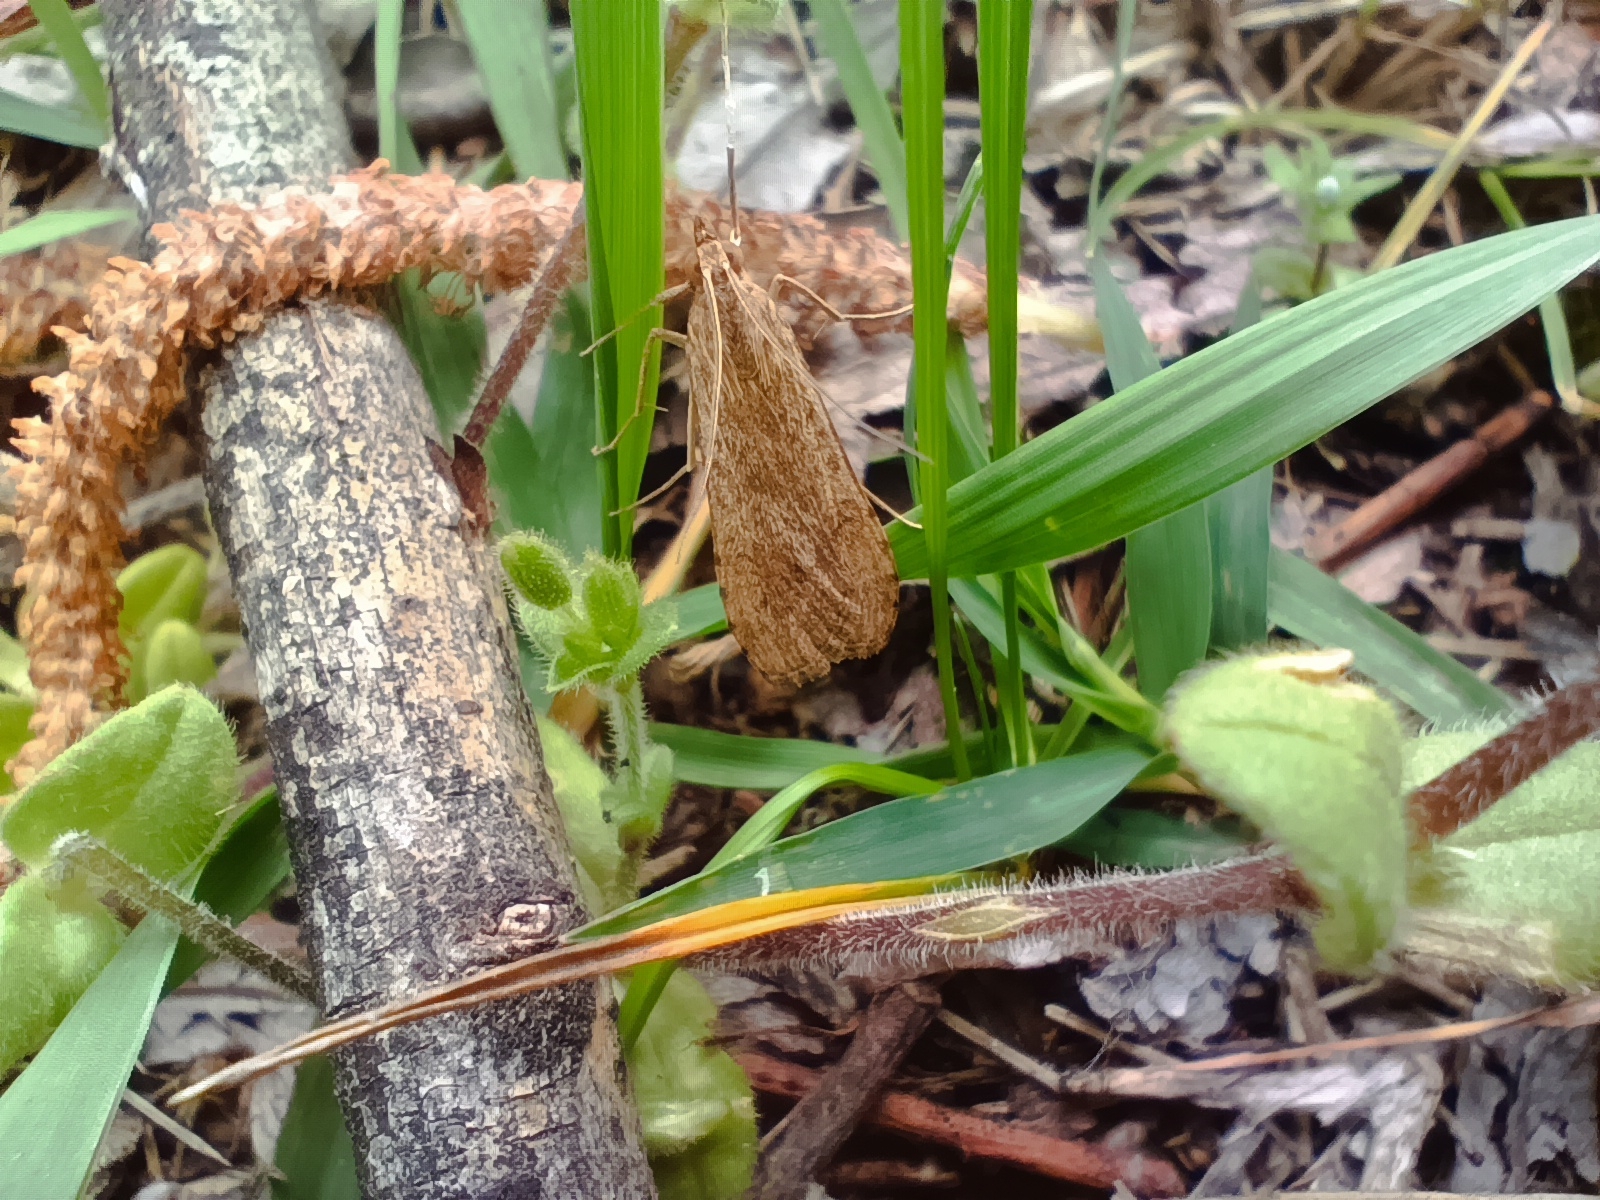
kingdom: Animalia
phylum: Arthropoda
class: Insecta
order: Lepidoptera
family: Crambidae
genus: Nomophila
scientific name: Nomophila noctuella
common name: Rush veneer
